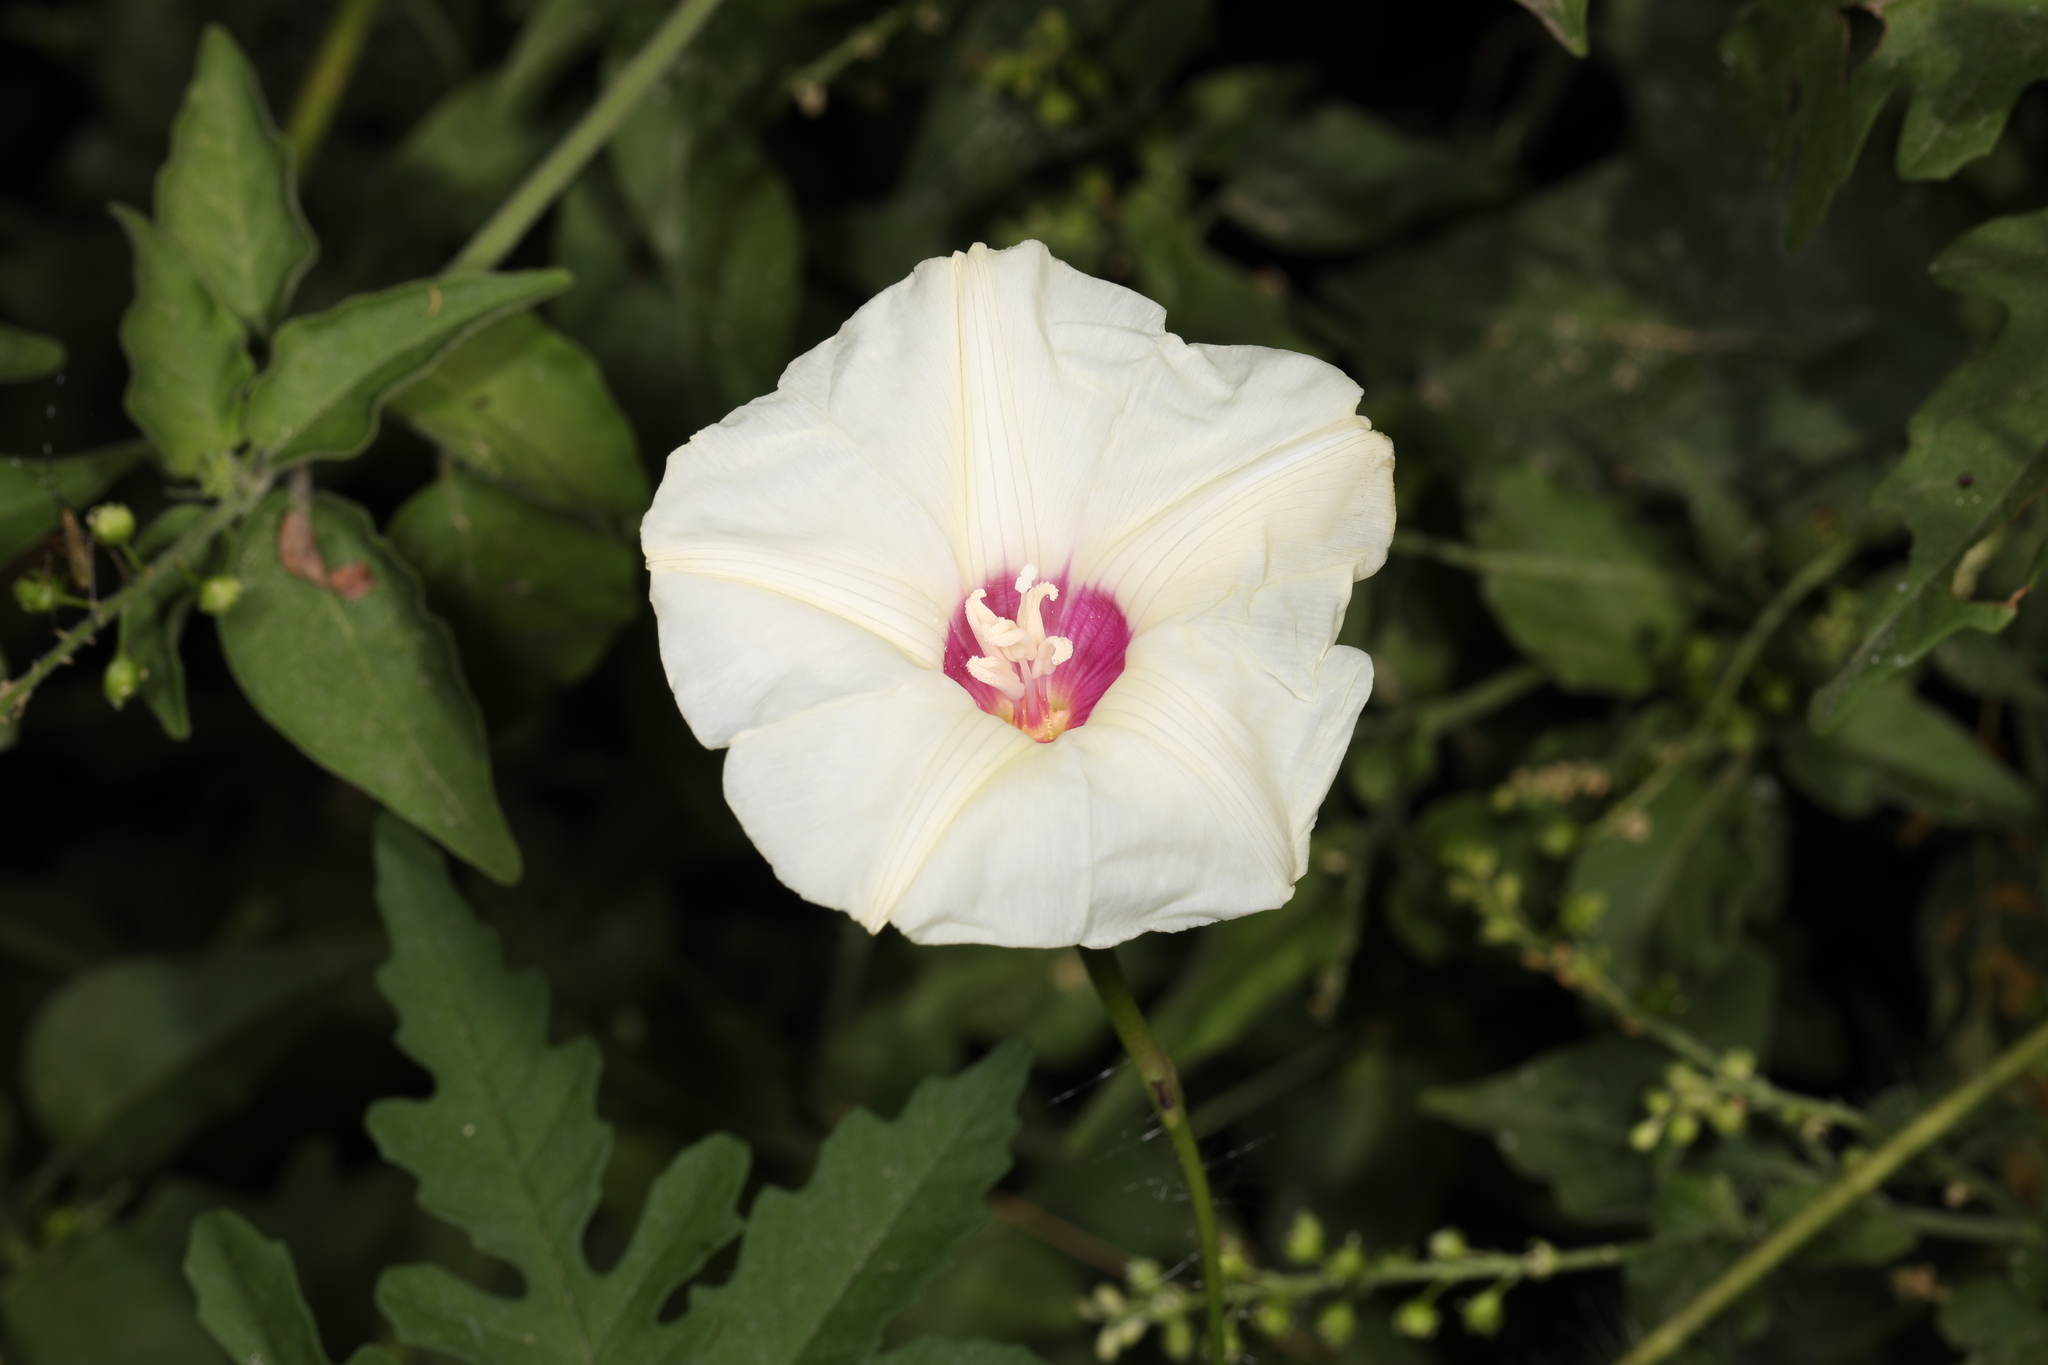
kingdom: Plantae
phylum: Tracheophyta
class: Magnoliopsida
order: Solanales
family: Convolvulaceae
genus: Distimake
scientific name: Distimake dissectus
